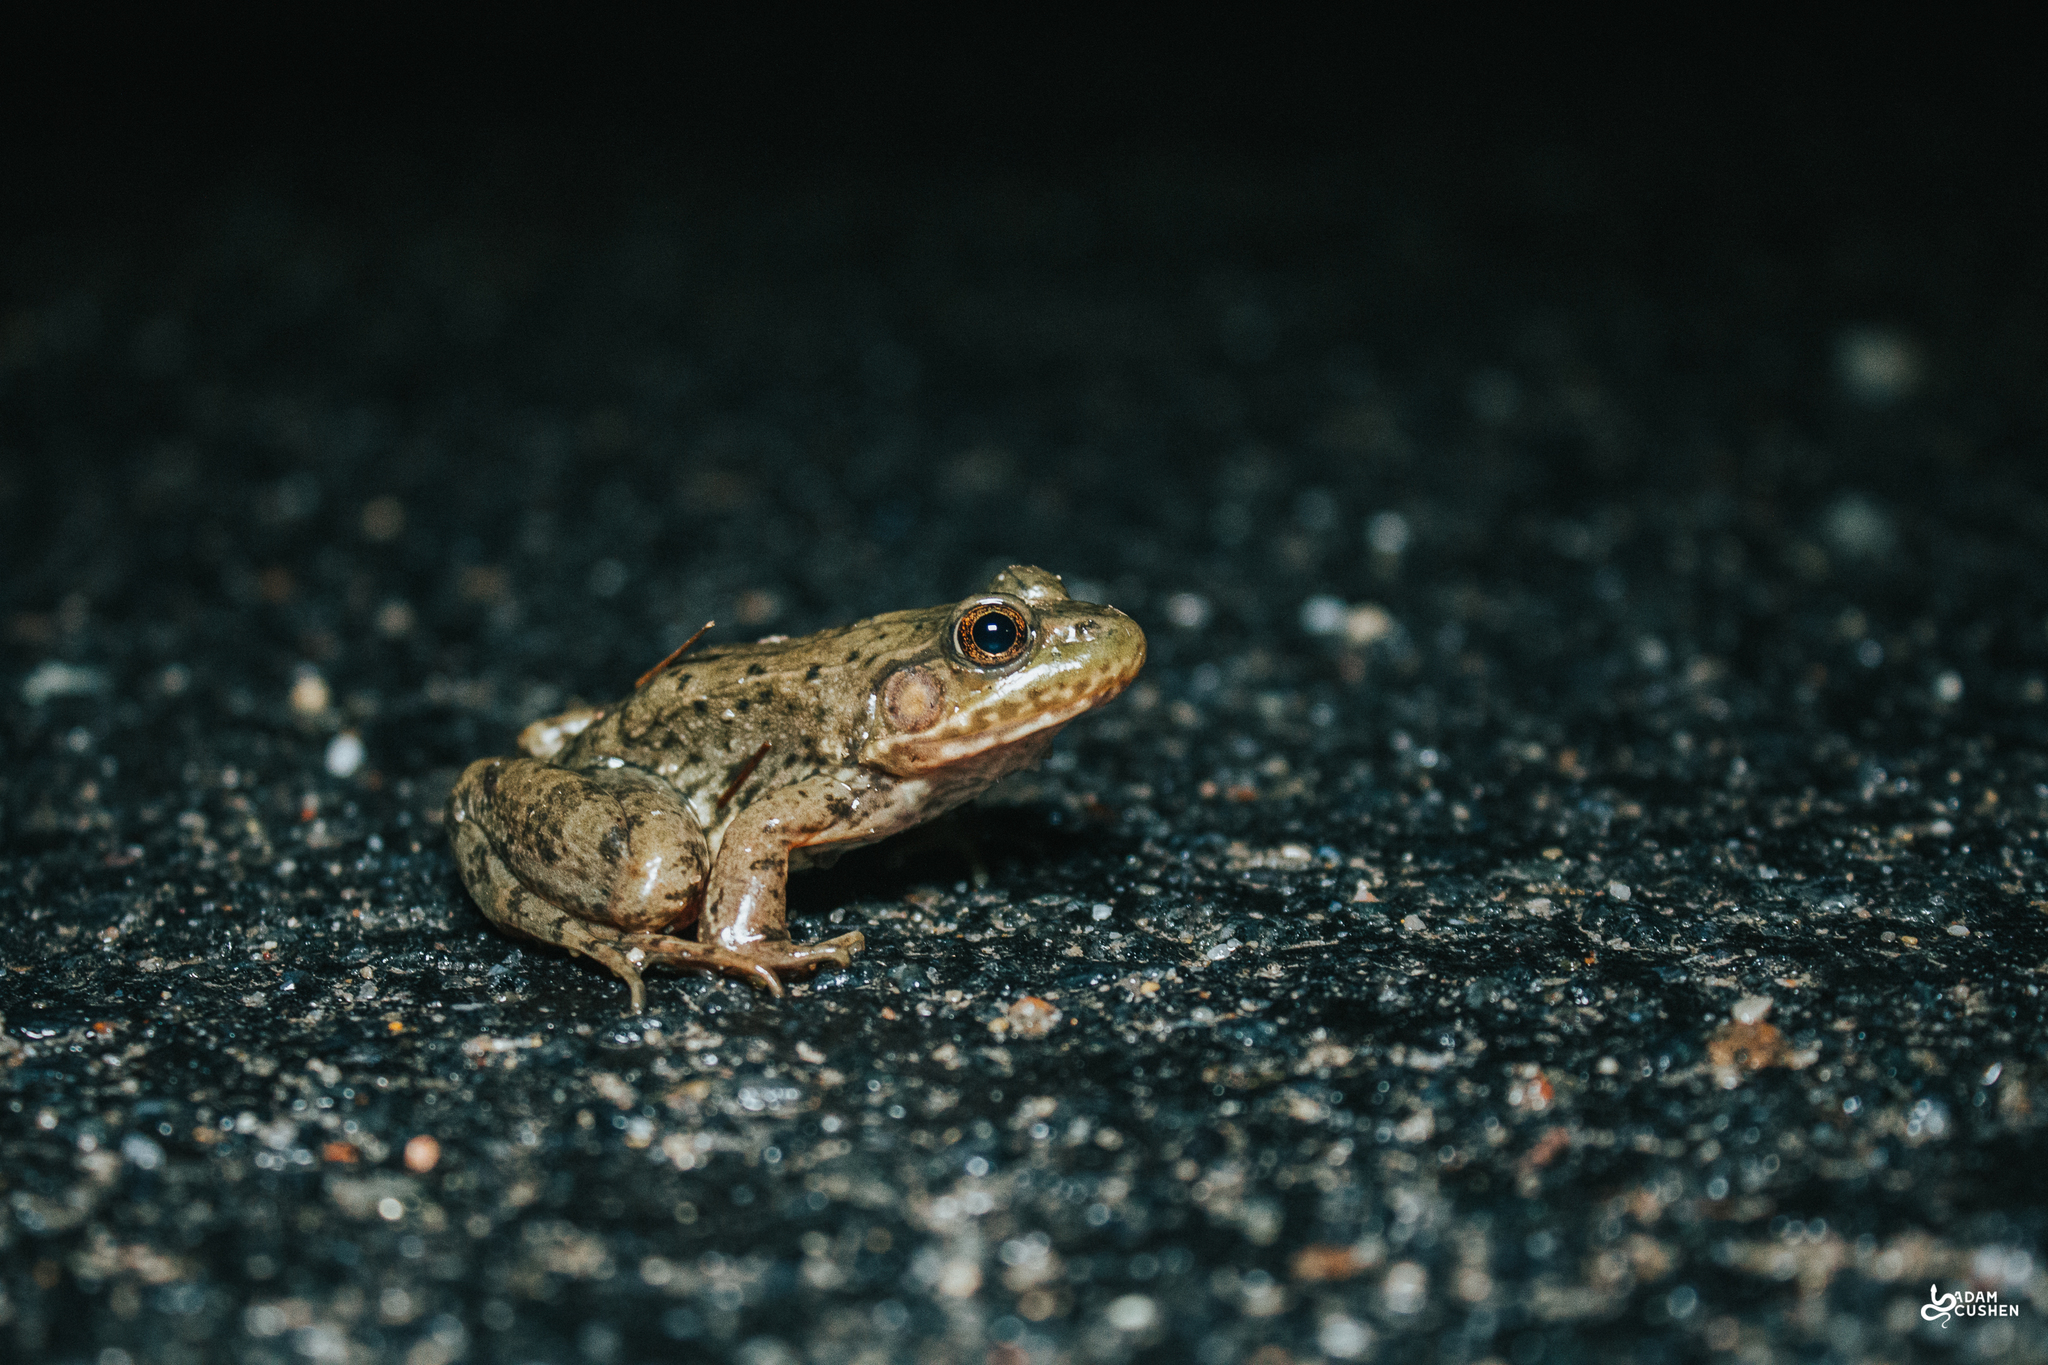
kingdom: Animalia
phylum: Chordata
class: Amphibia
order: Anura
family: Ranidae
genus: Lithobates
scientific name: Lithobates clamitans
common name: Green frog
